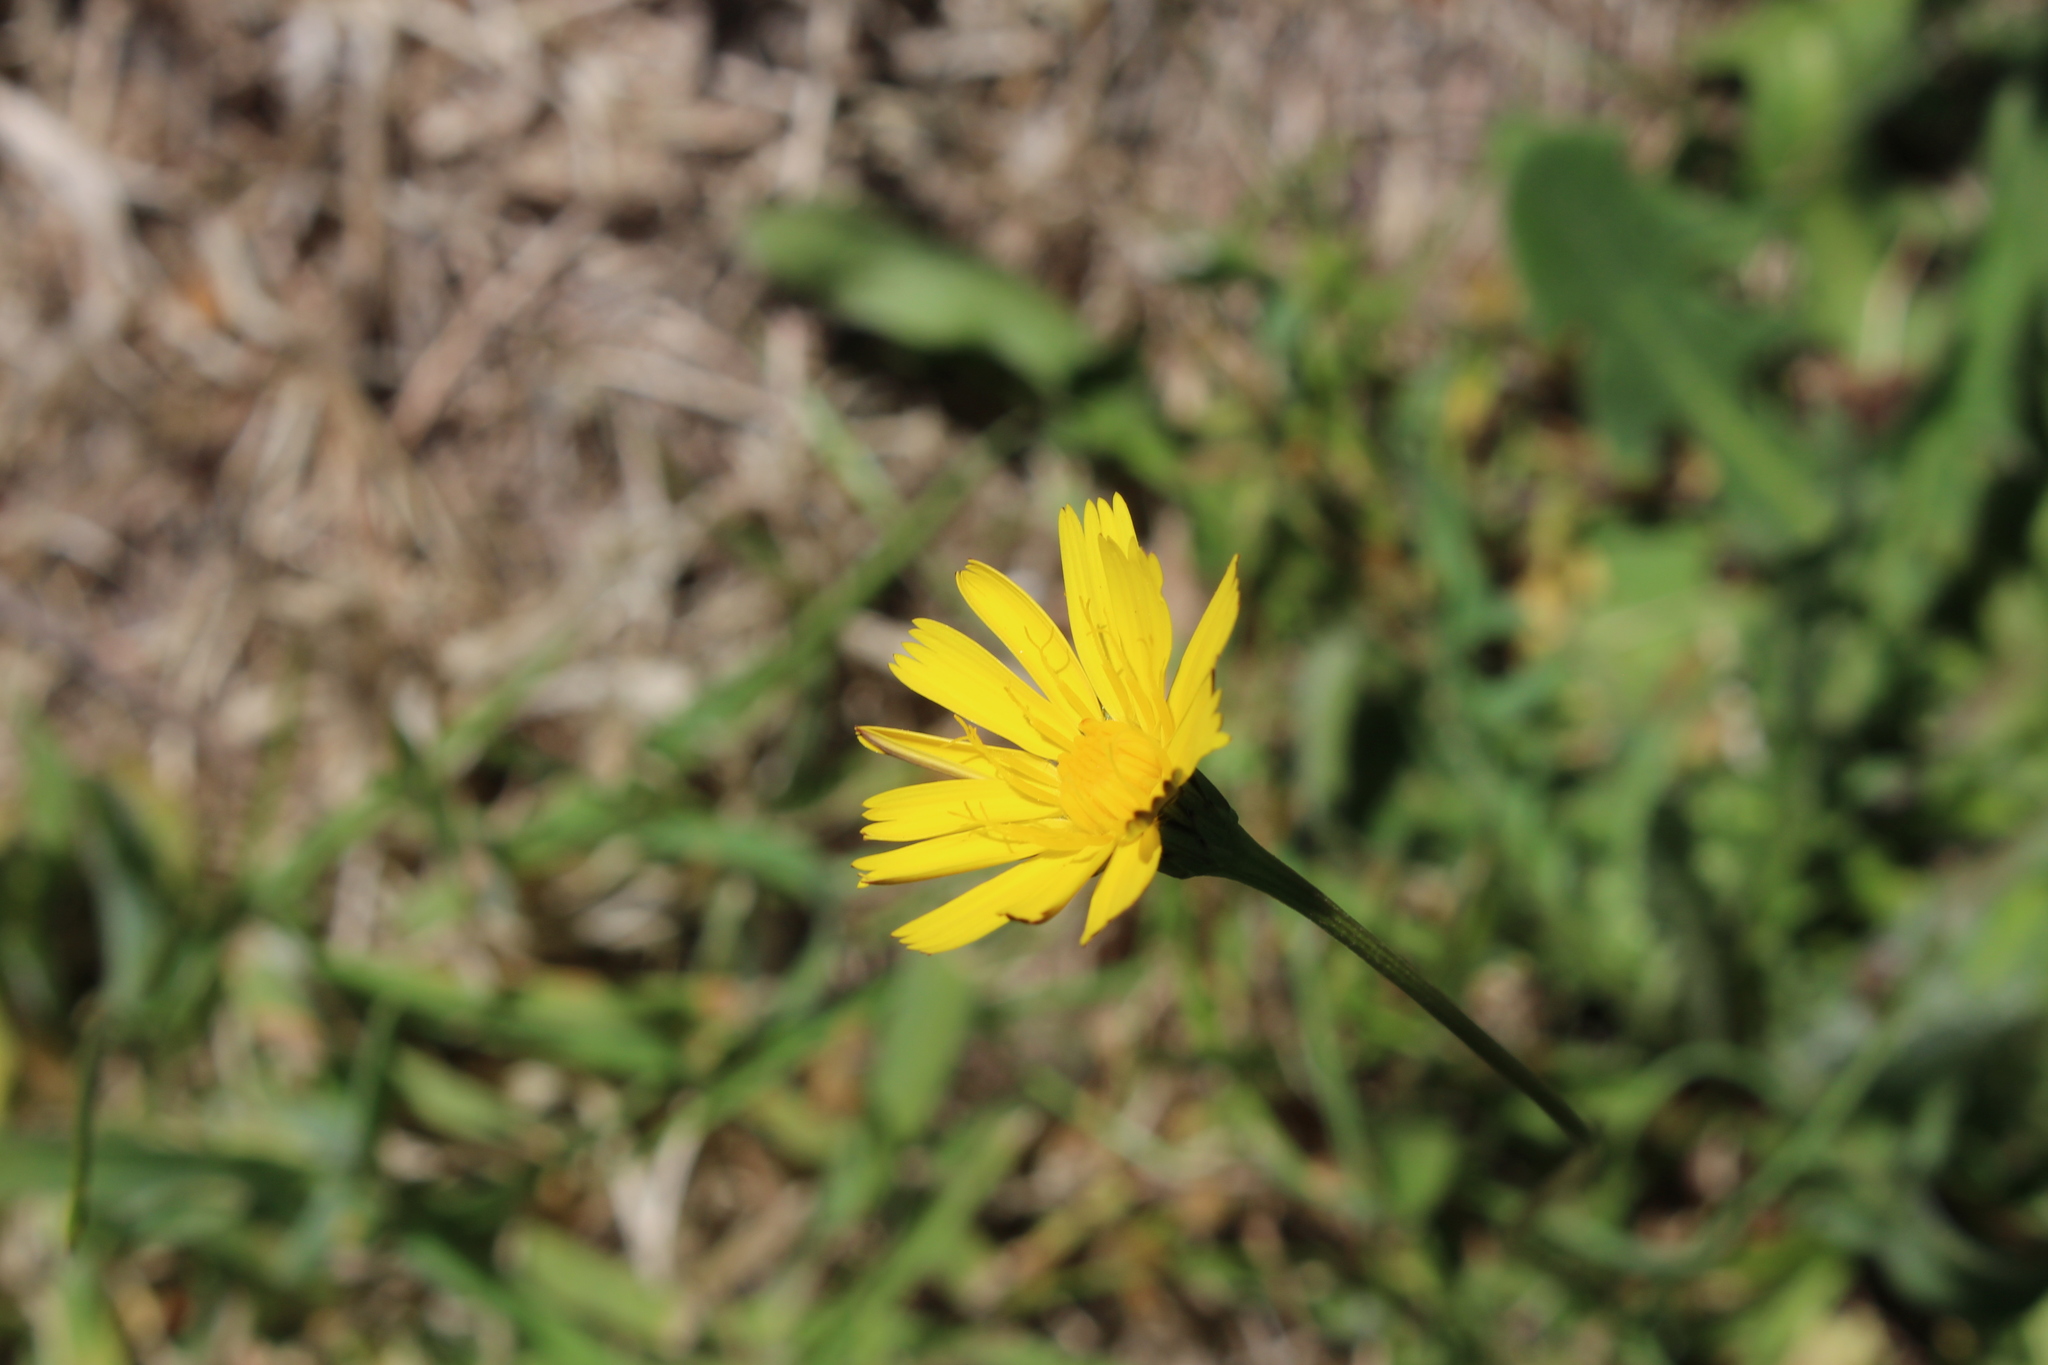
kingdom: Plantae
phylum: Tracheophyta
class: Magnoliopsida
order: Asterales
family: Asteraceae
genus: Hypochaeris
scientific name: Hypochaeris radicata
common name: Flatweed
